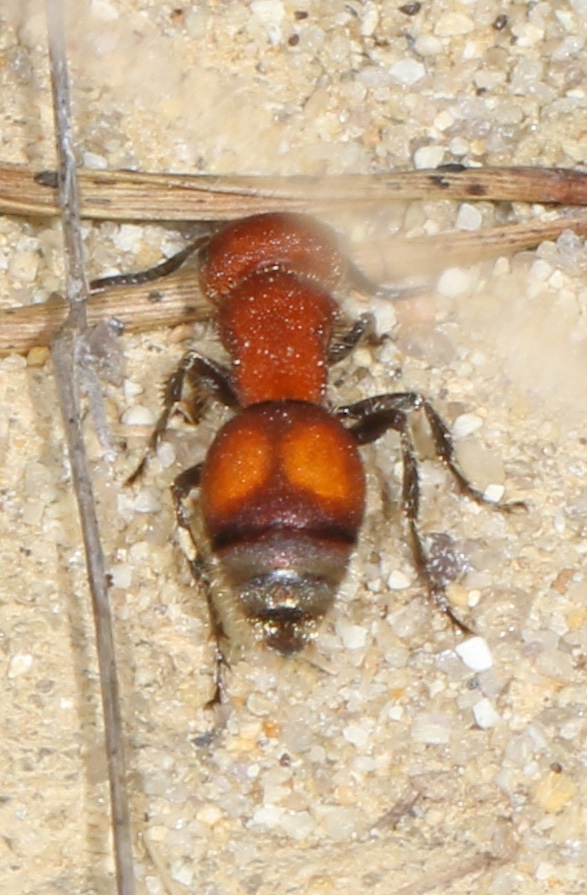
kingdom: Animalia
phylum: Arthropoda
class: Insecta
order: Hymenoptera
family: Mutillidae
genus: Pseudomethoca
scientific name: Pseudomethoca
